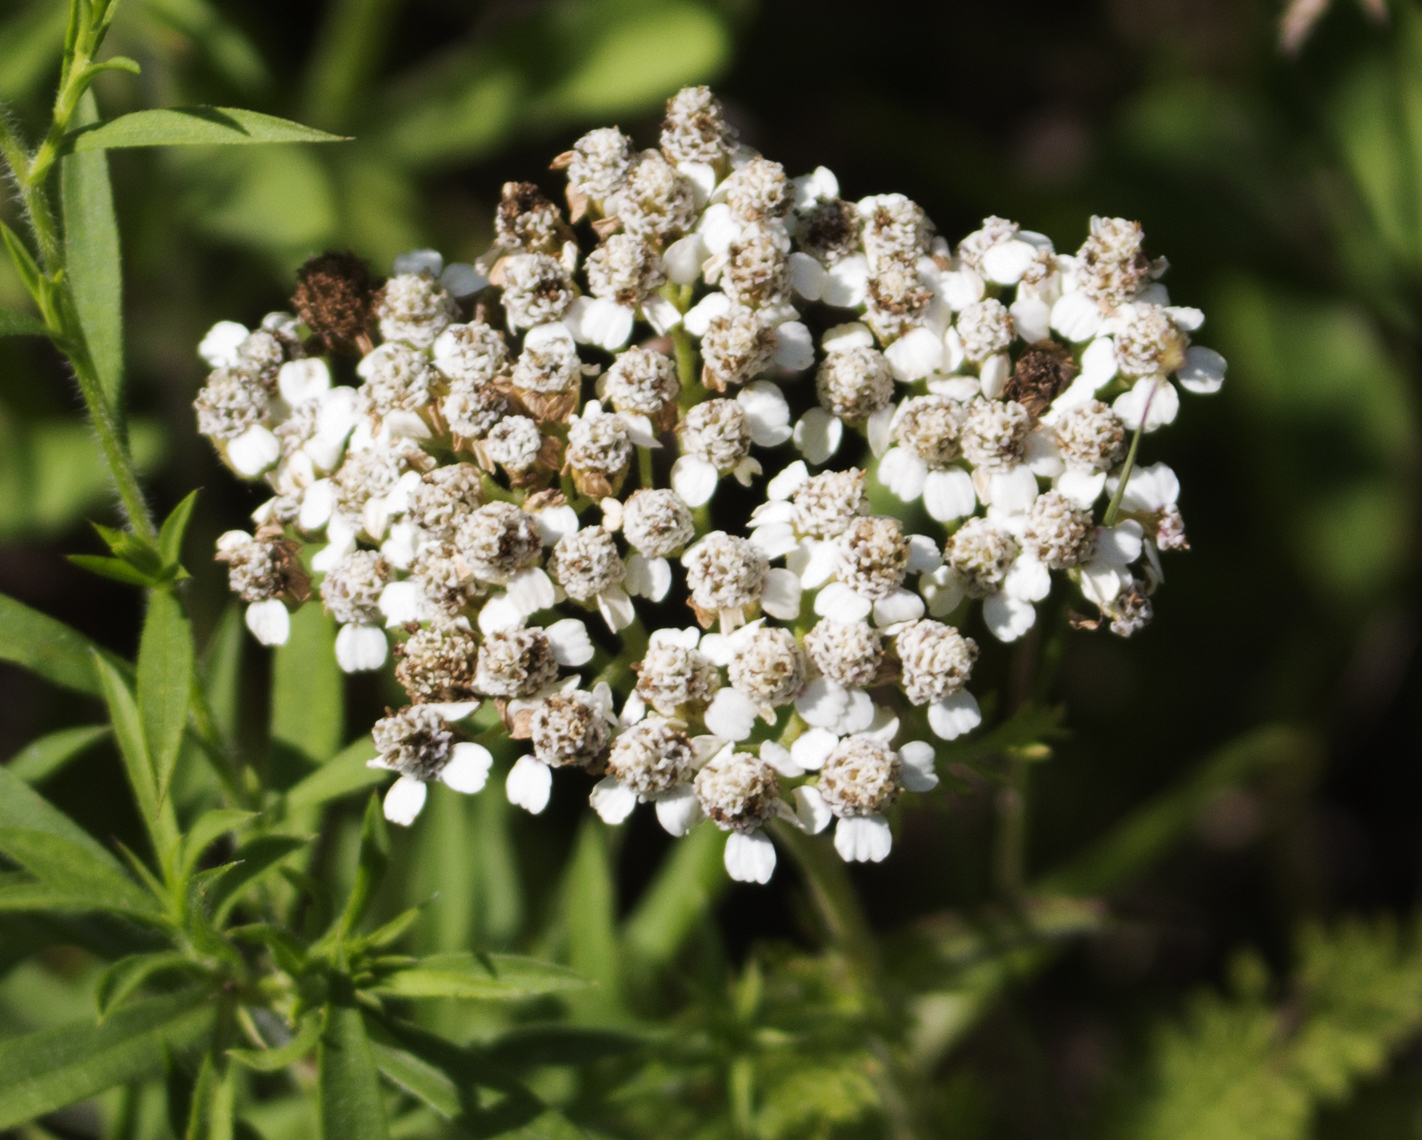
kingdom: Plantae
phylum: Tracheophyta
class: Magnoliopsida
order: Asterales
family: Asteraceae
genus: Achillea
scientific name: Achillea millefolium
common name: Yarrow
